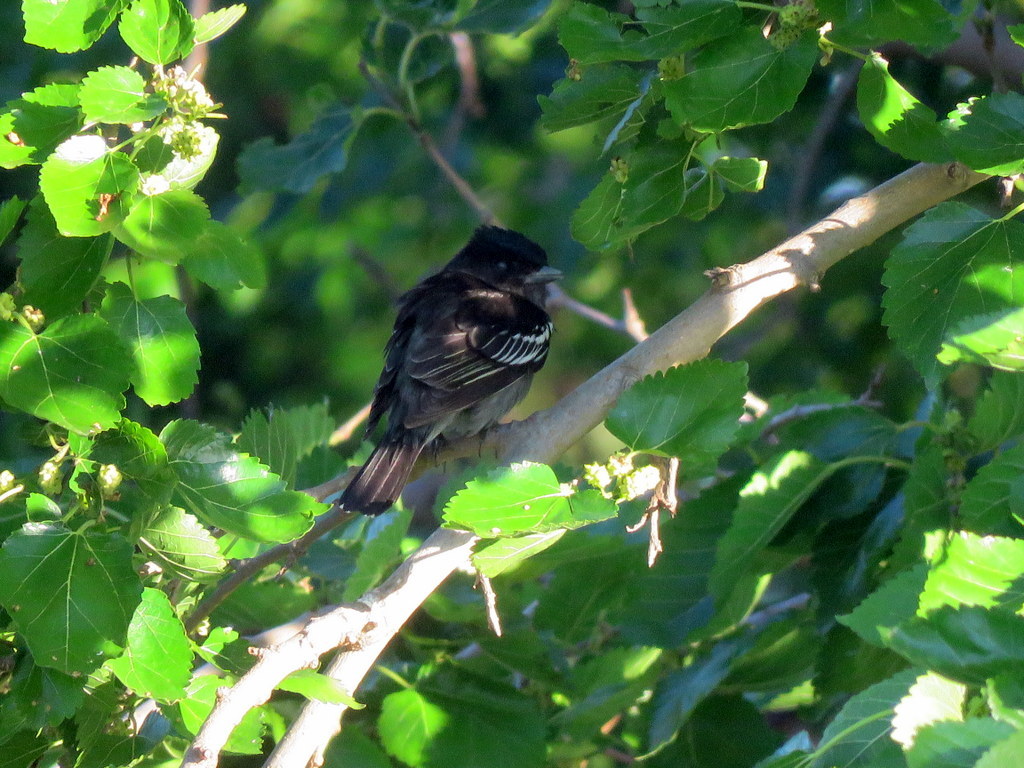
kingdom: Animalia
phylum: Chordata
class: Aves
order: Passeriformes
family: Cotingidae
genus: Pachyramphus
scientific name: Pachyramphus polychopterus
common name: White-winged becard
